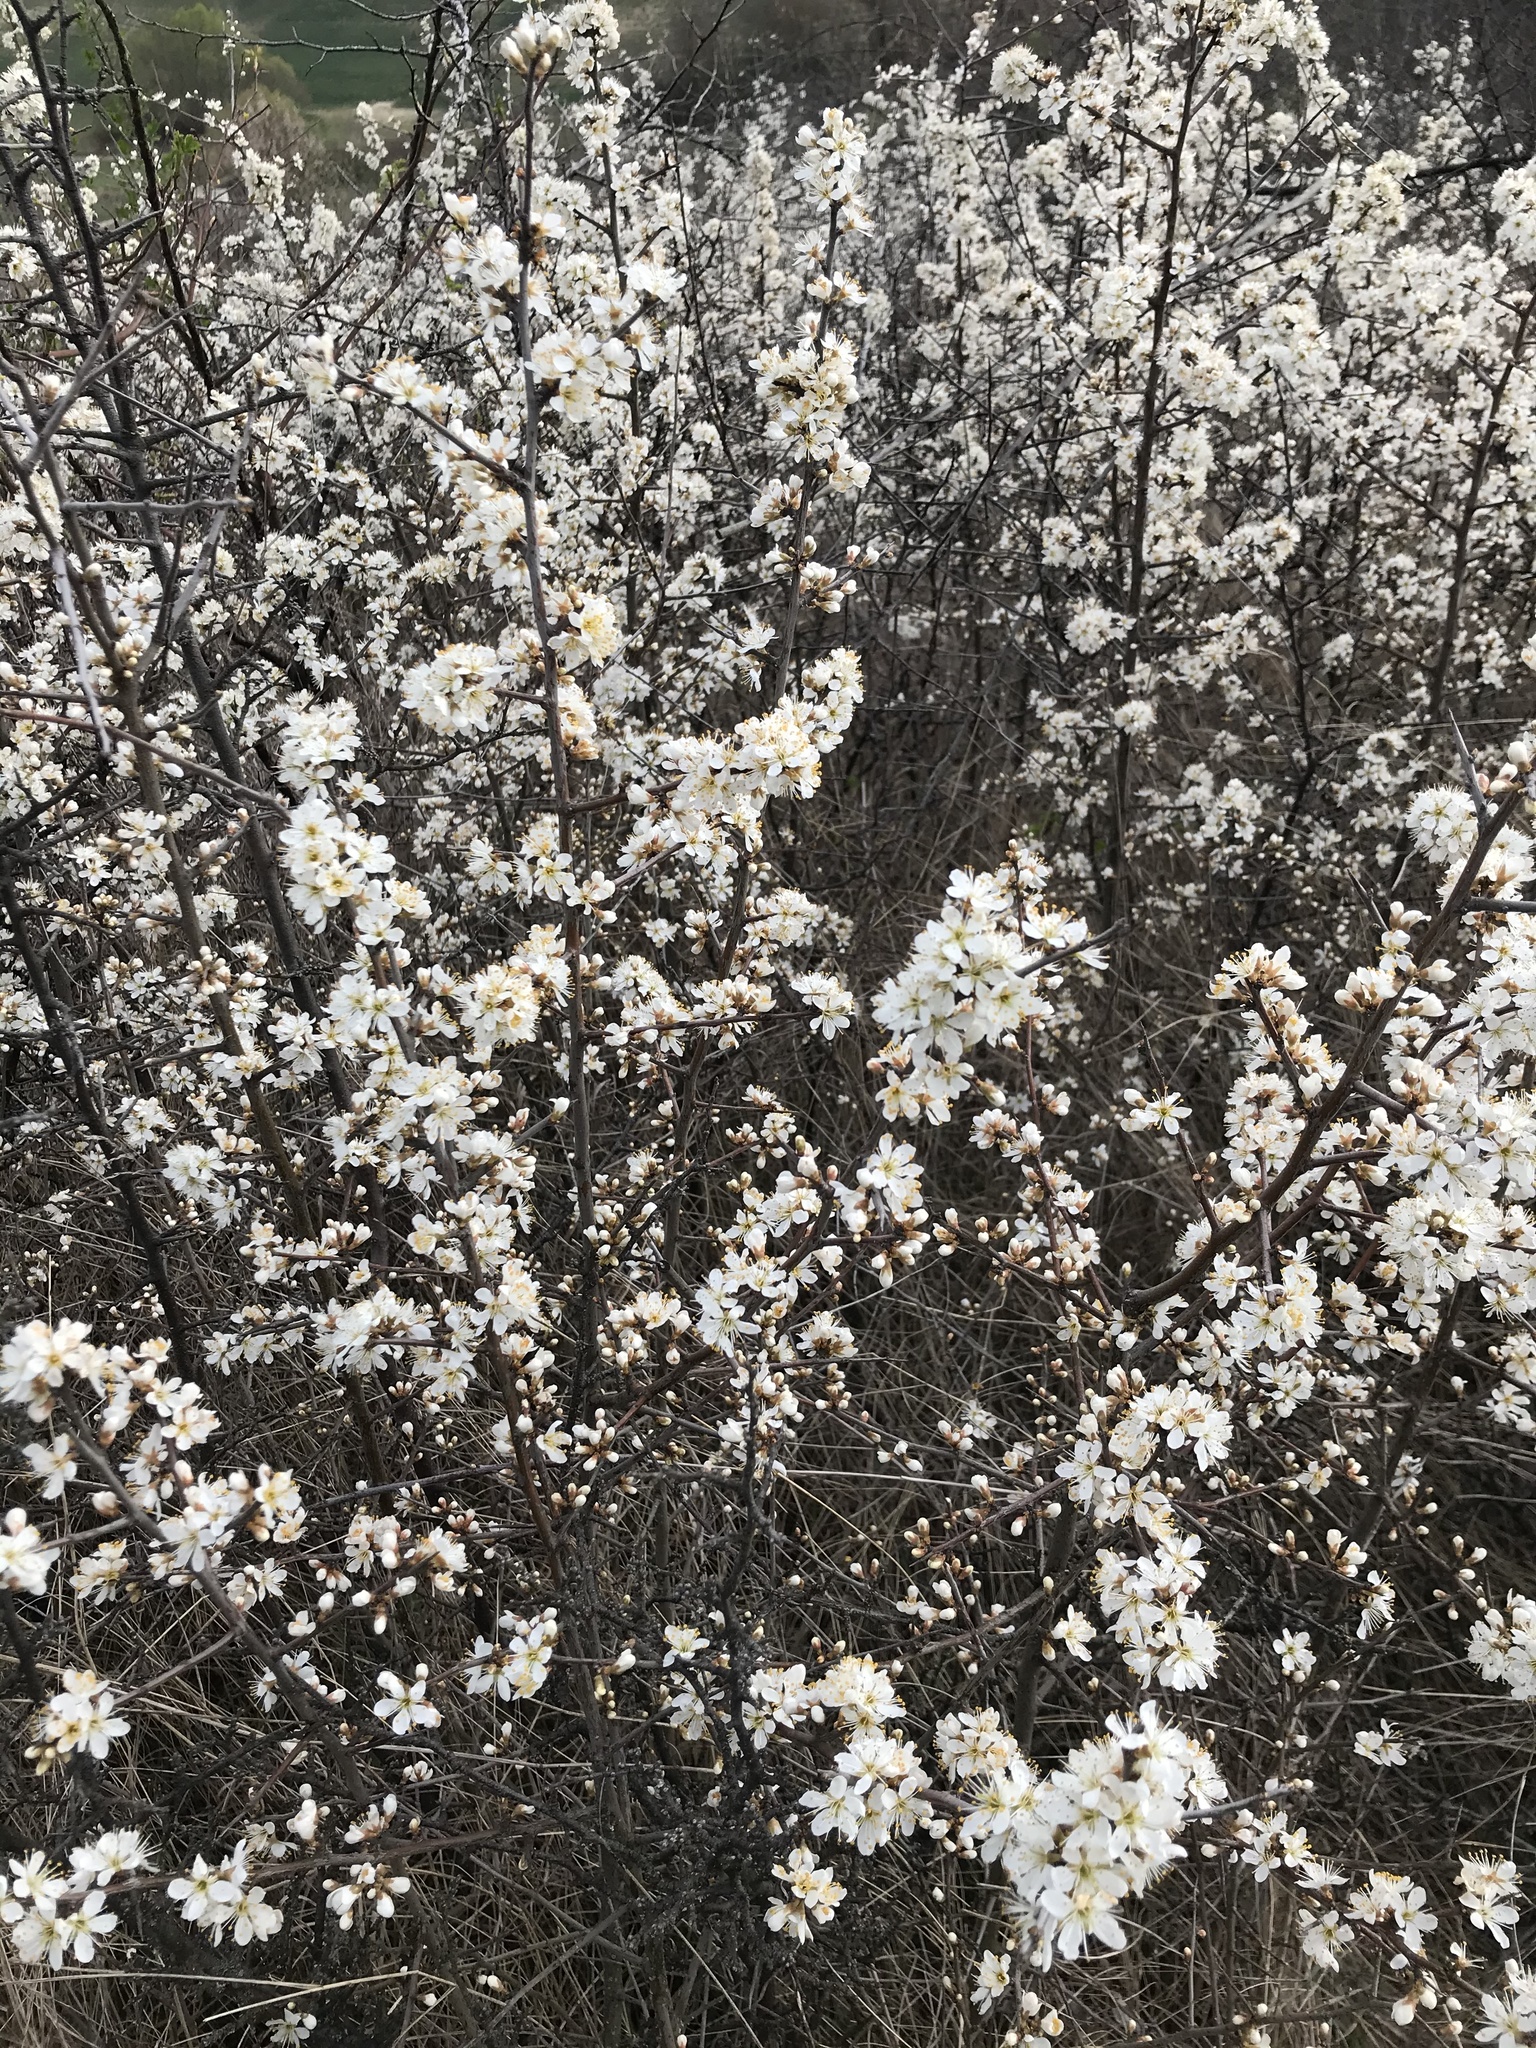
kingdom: Plantae
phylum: Tracheophyta
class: Magnoliopsida
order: Rosales
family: Rosaceae
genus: Prunus
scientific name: Prunus spinosa
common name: Blackthorn
